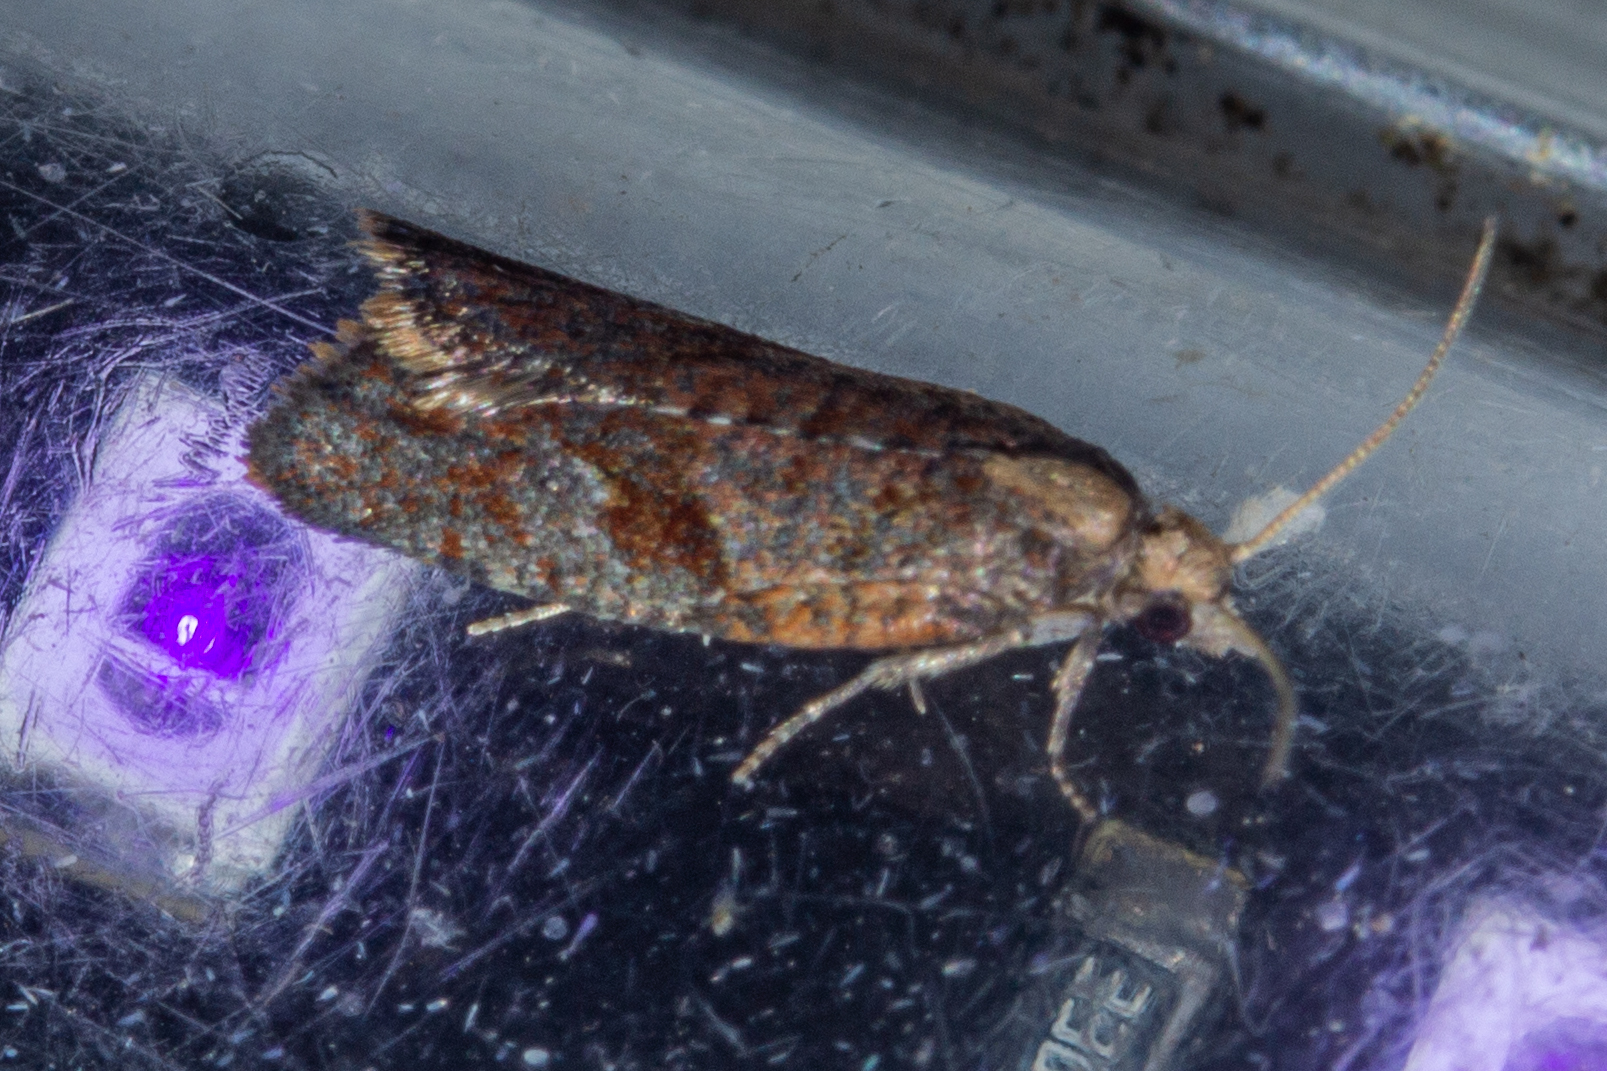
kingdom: Animalia
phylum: Arthropoda
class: Insecta
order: Lepidoptera
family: Tortricidae
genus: Capua
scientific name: Capua semiferana
